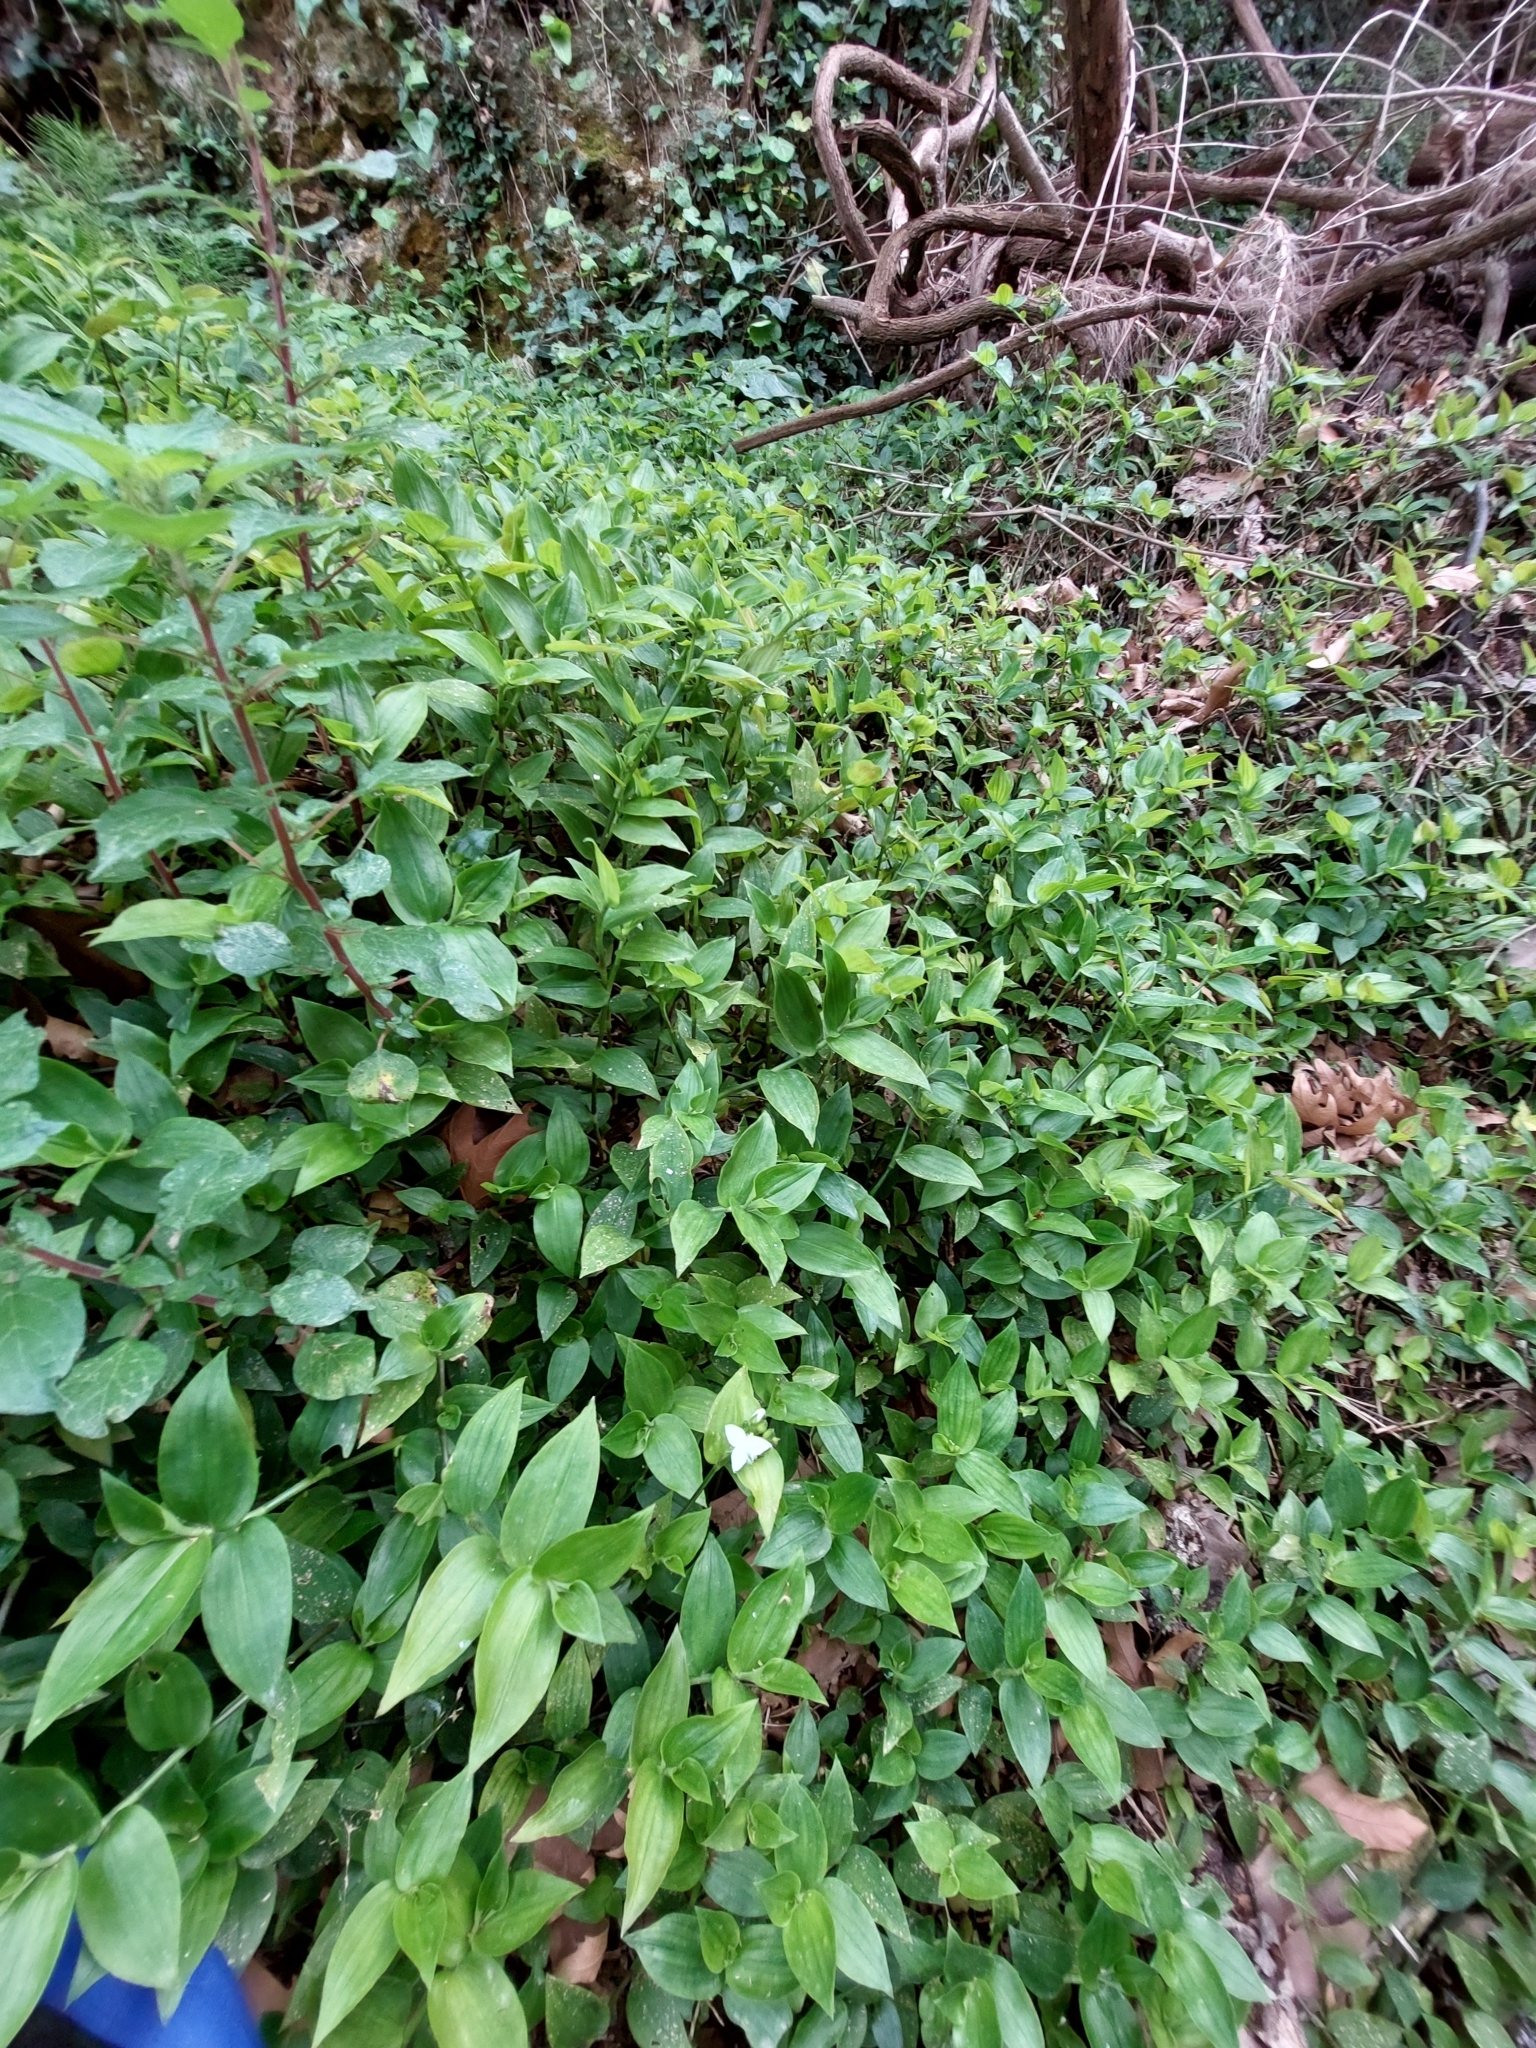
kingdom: Plantae
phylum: Tracheophyta
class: Liliopsida
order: Commelinales
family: Commelinaceae
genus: Tradescantia
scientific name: Tradescantia fluminensis
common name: Wandering-jew
